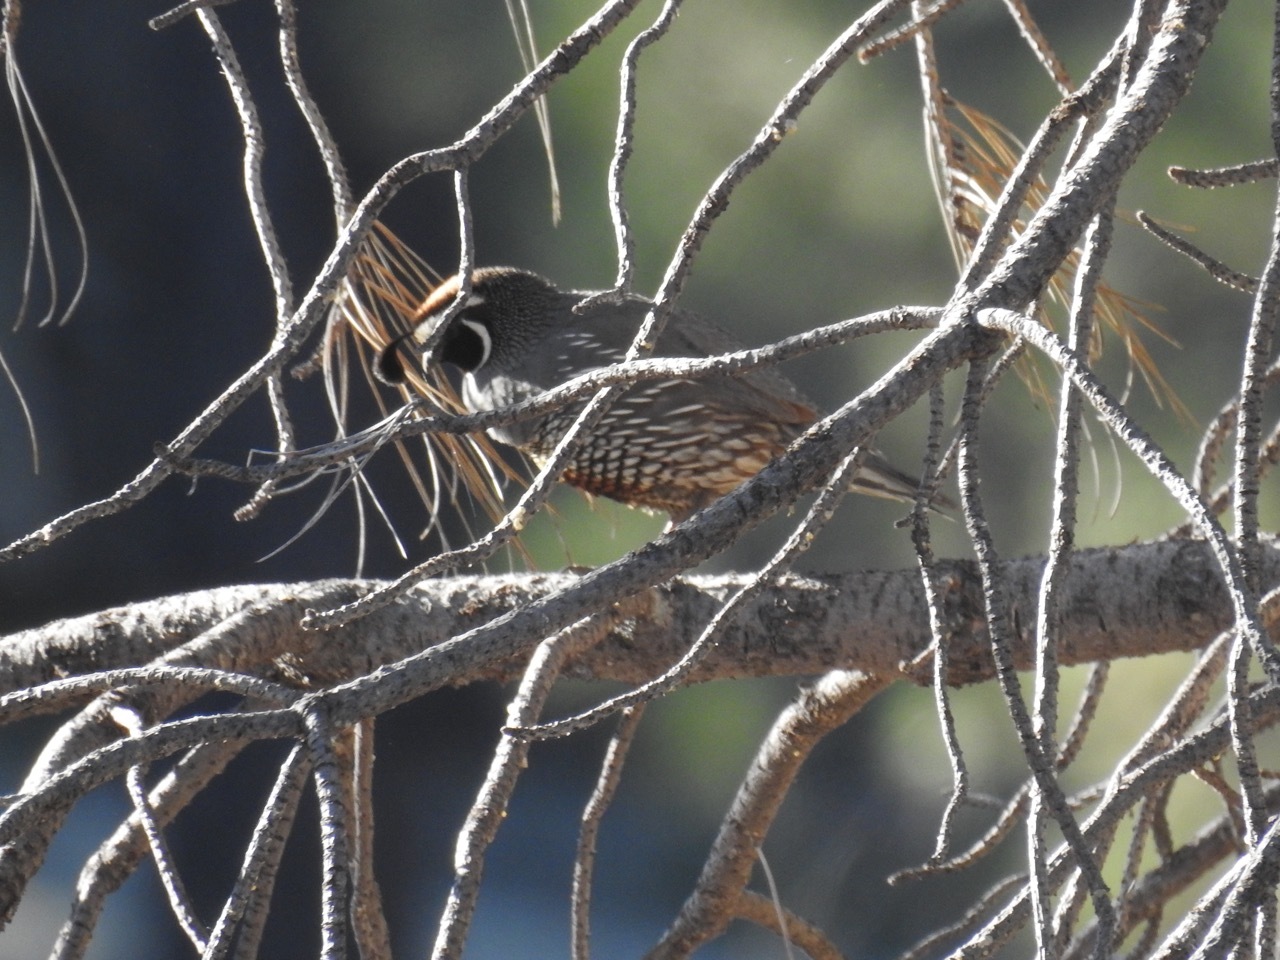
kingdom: Animalia
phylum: Chordata
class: Aves
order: Galliformes
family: Odontophoridae
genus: Callipepla
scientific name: Callipepla californica
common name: California quail
